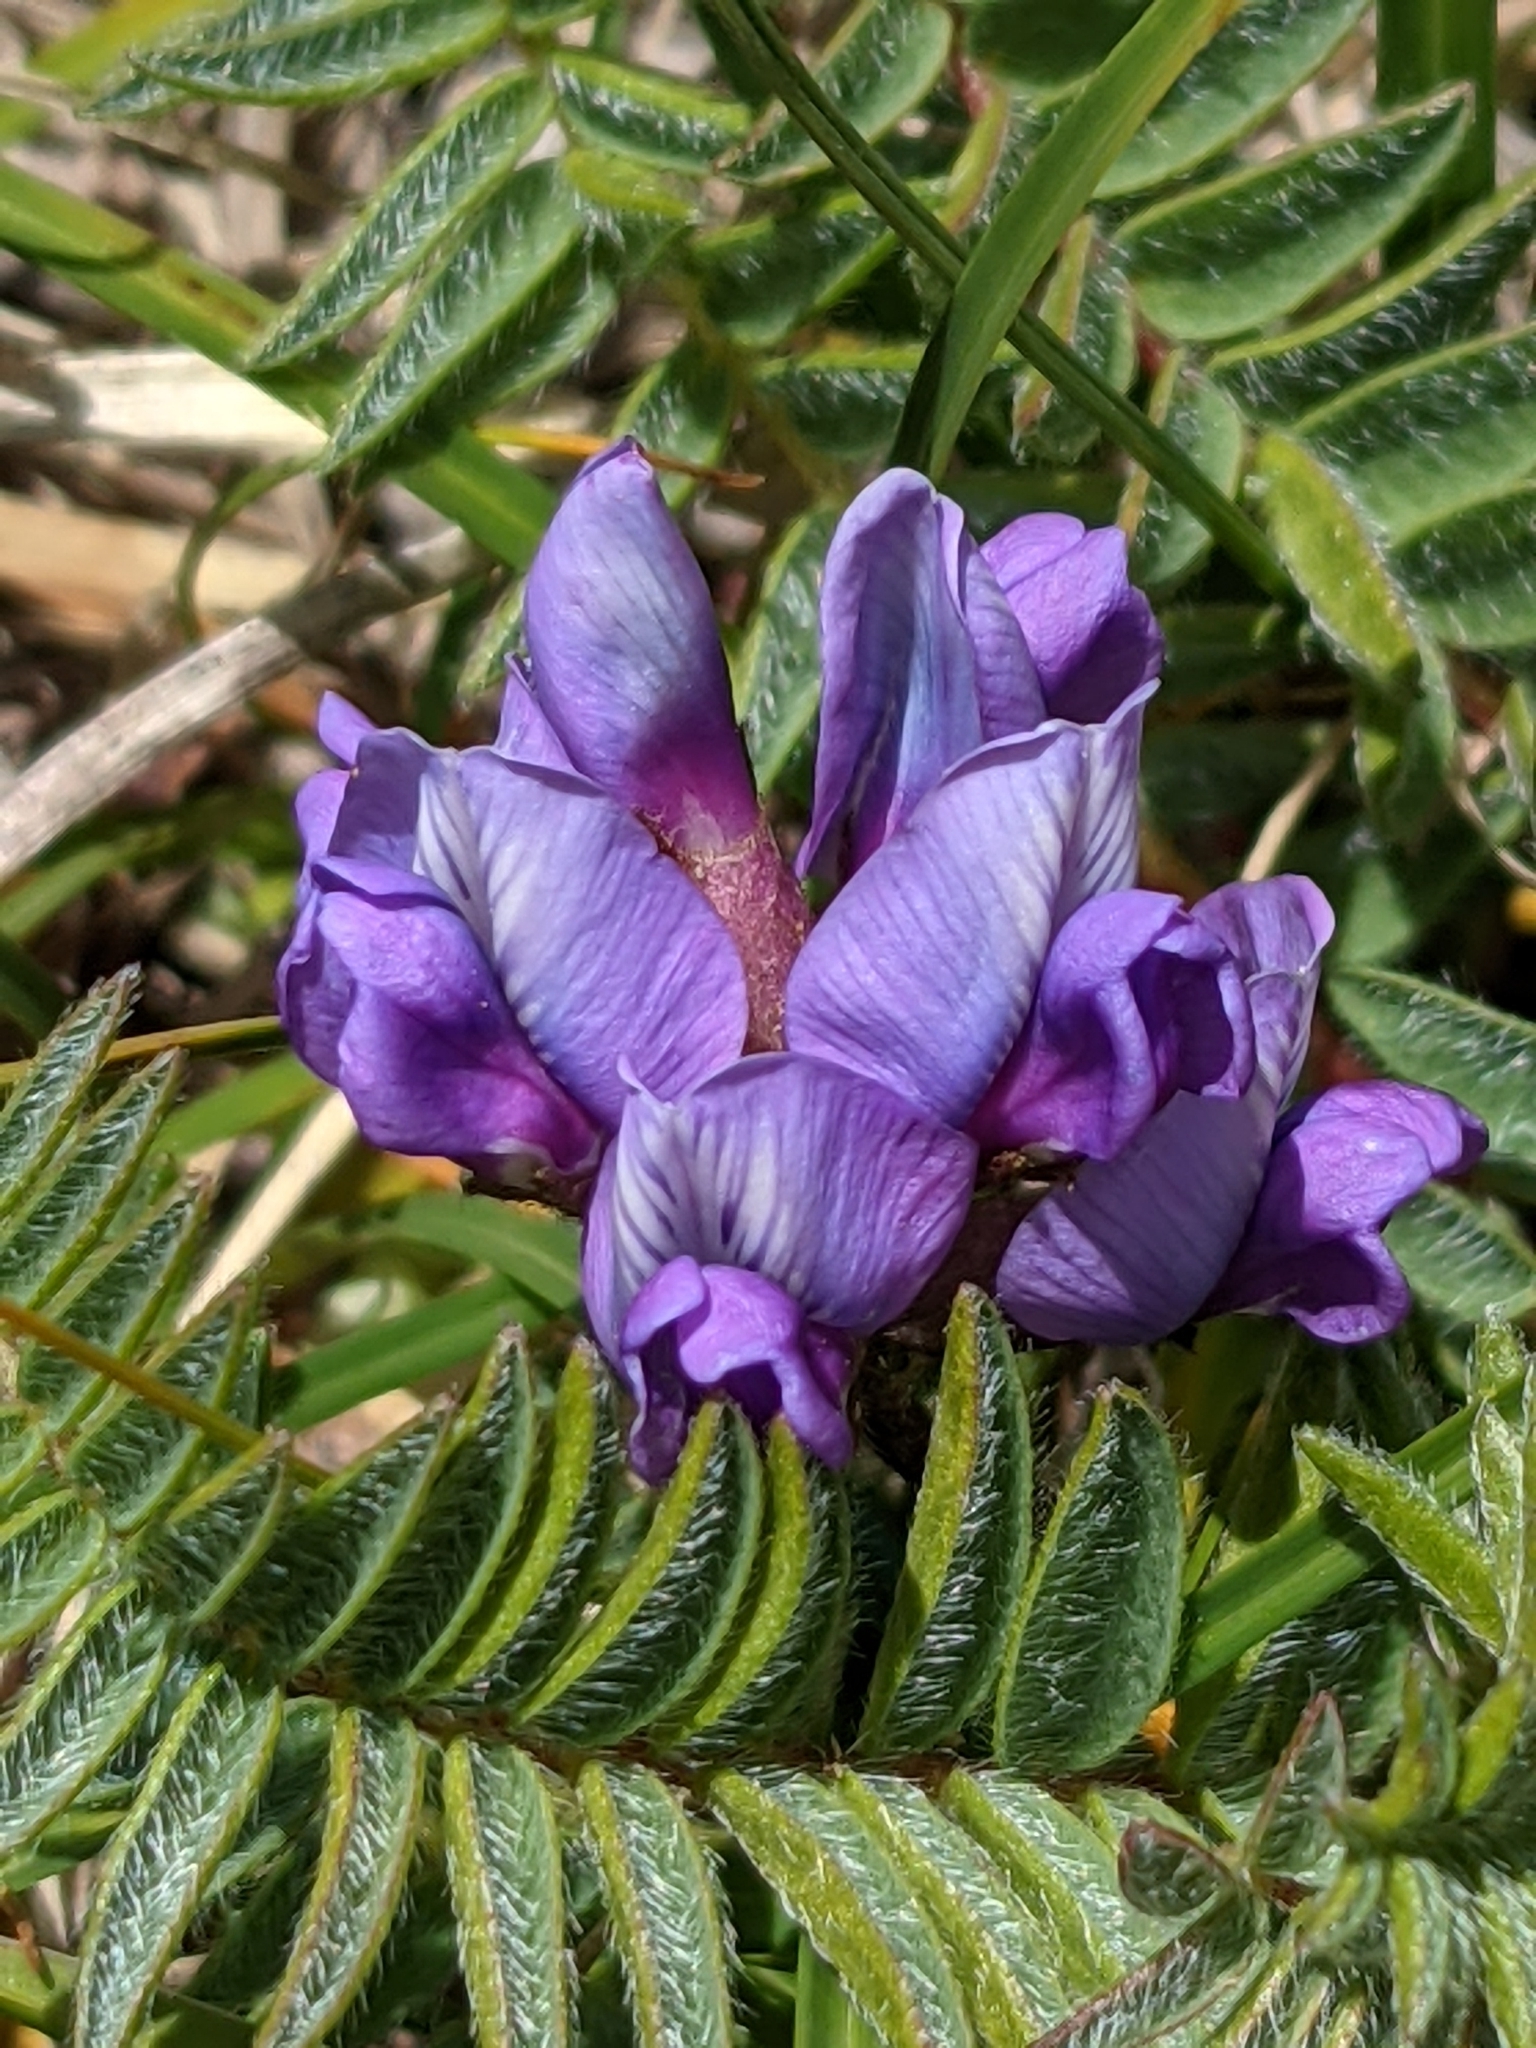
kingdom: Plantae
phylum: Tracheophyta
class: Magnoliopsida
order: Fabales
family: Fabaceae
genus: Oxytropis
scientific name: Oxytropis montana
